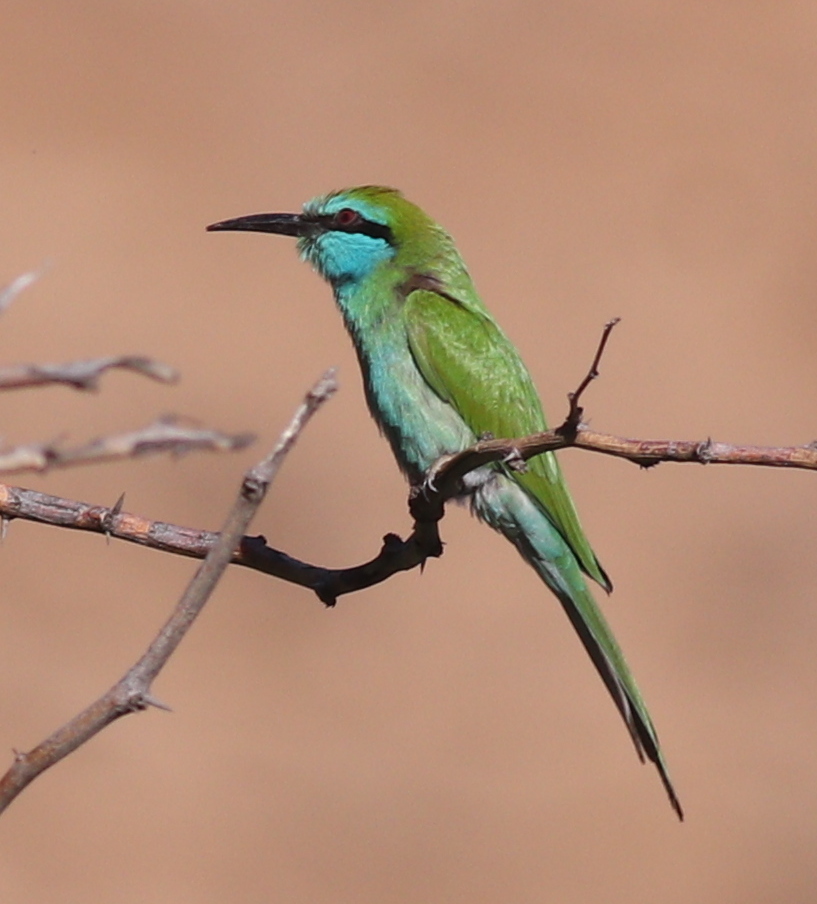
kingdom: Animalia
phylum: Chordata
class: Aves
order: Coraciiformes
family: Meropidae
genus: Merops
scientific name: Merops cyanophrys
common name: Arabian green bee-eater
